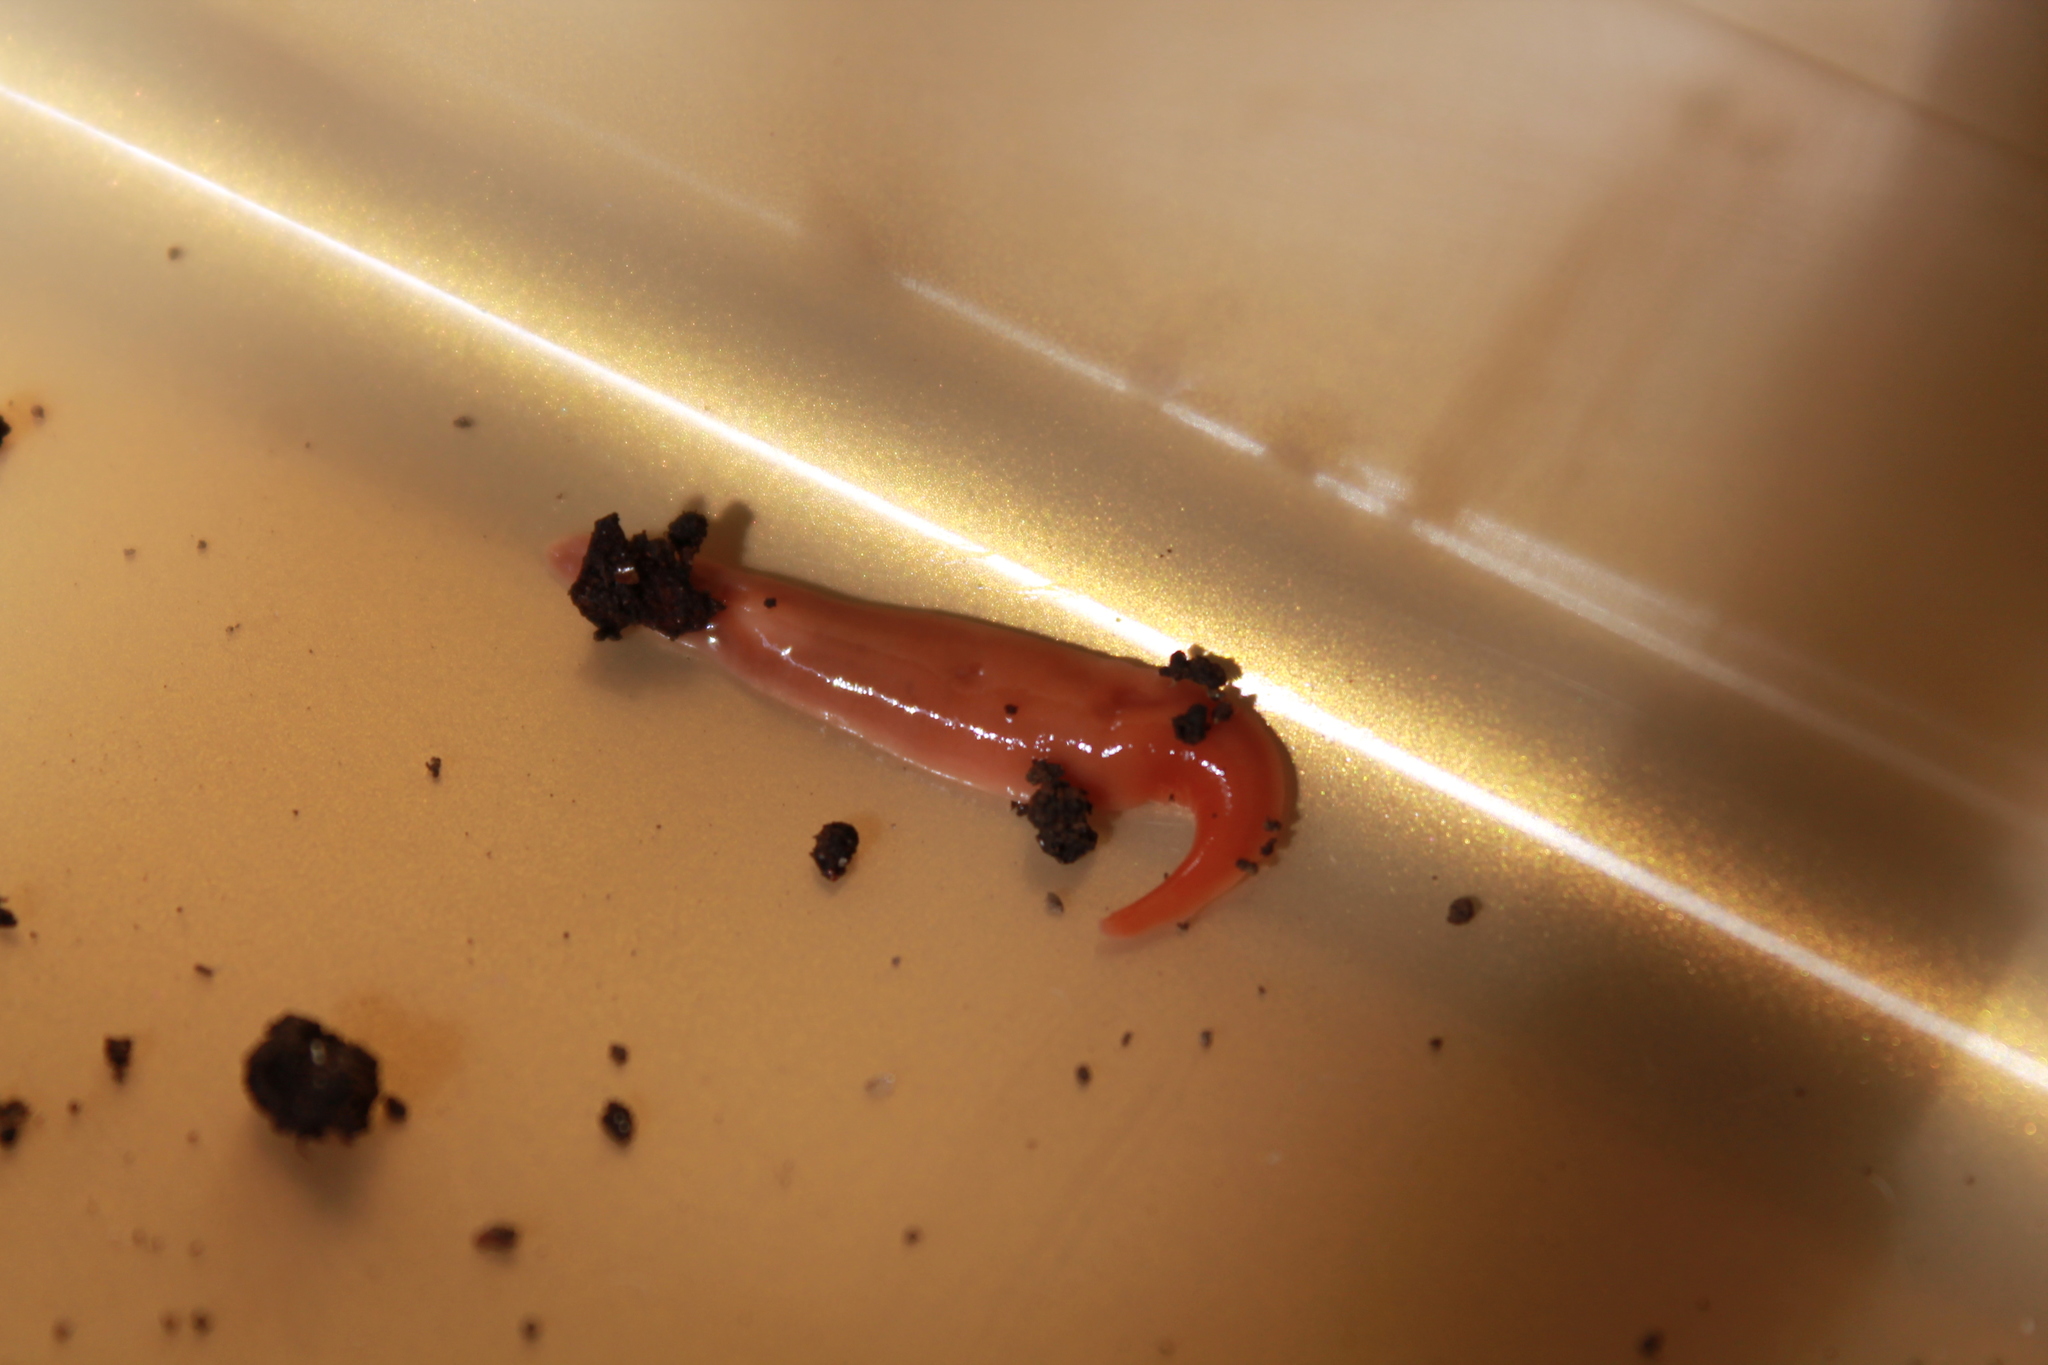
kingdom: Animalia
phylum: Platyhelminthes
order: Tricladida
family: Geoplanidae
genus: Australoplana
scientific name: Australoplana sanguinea
